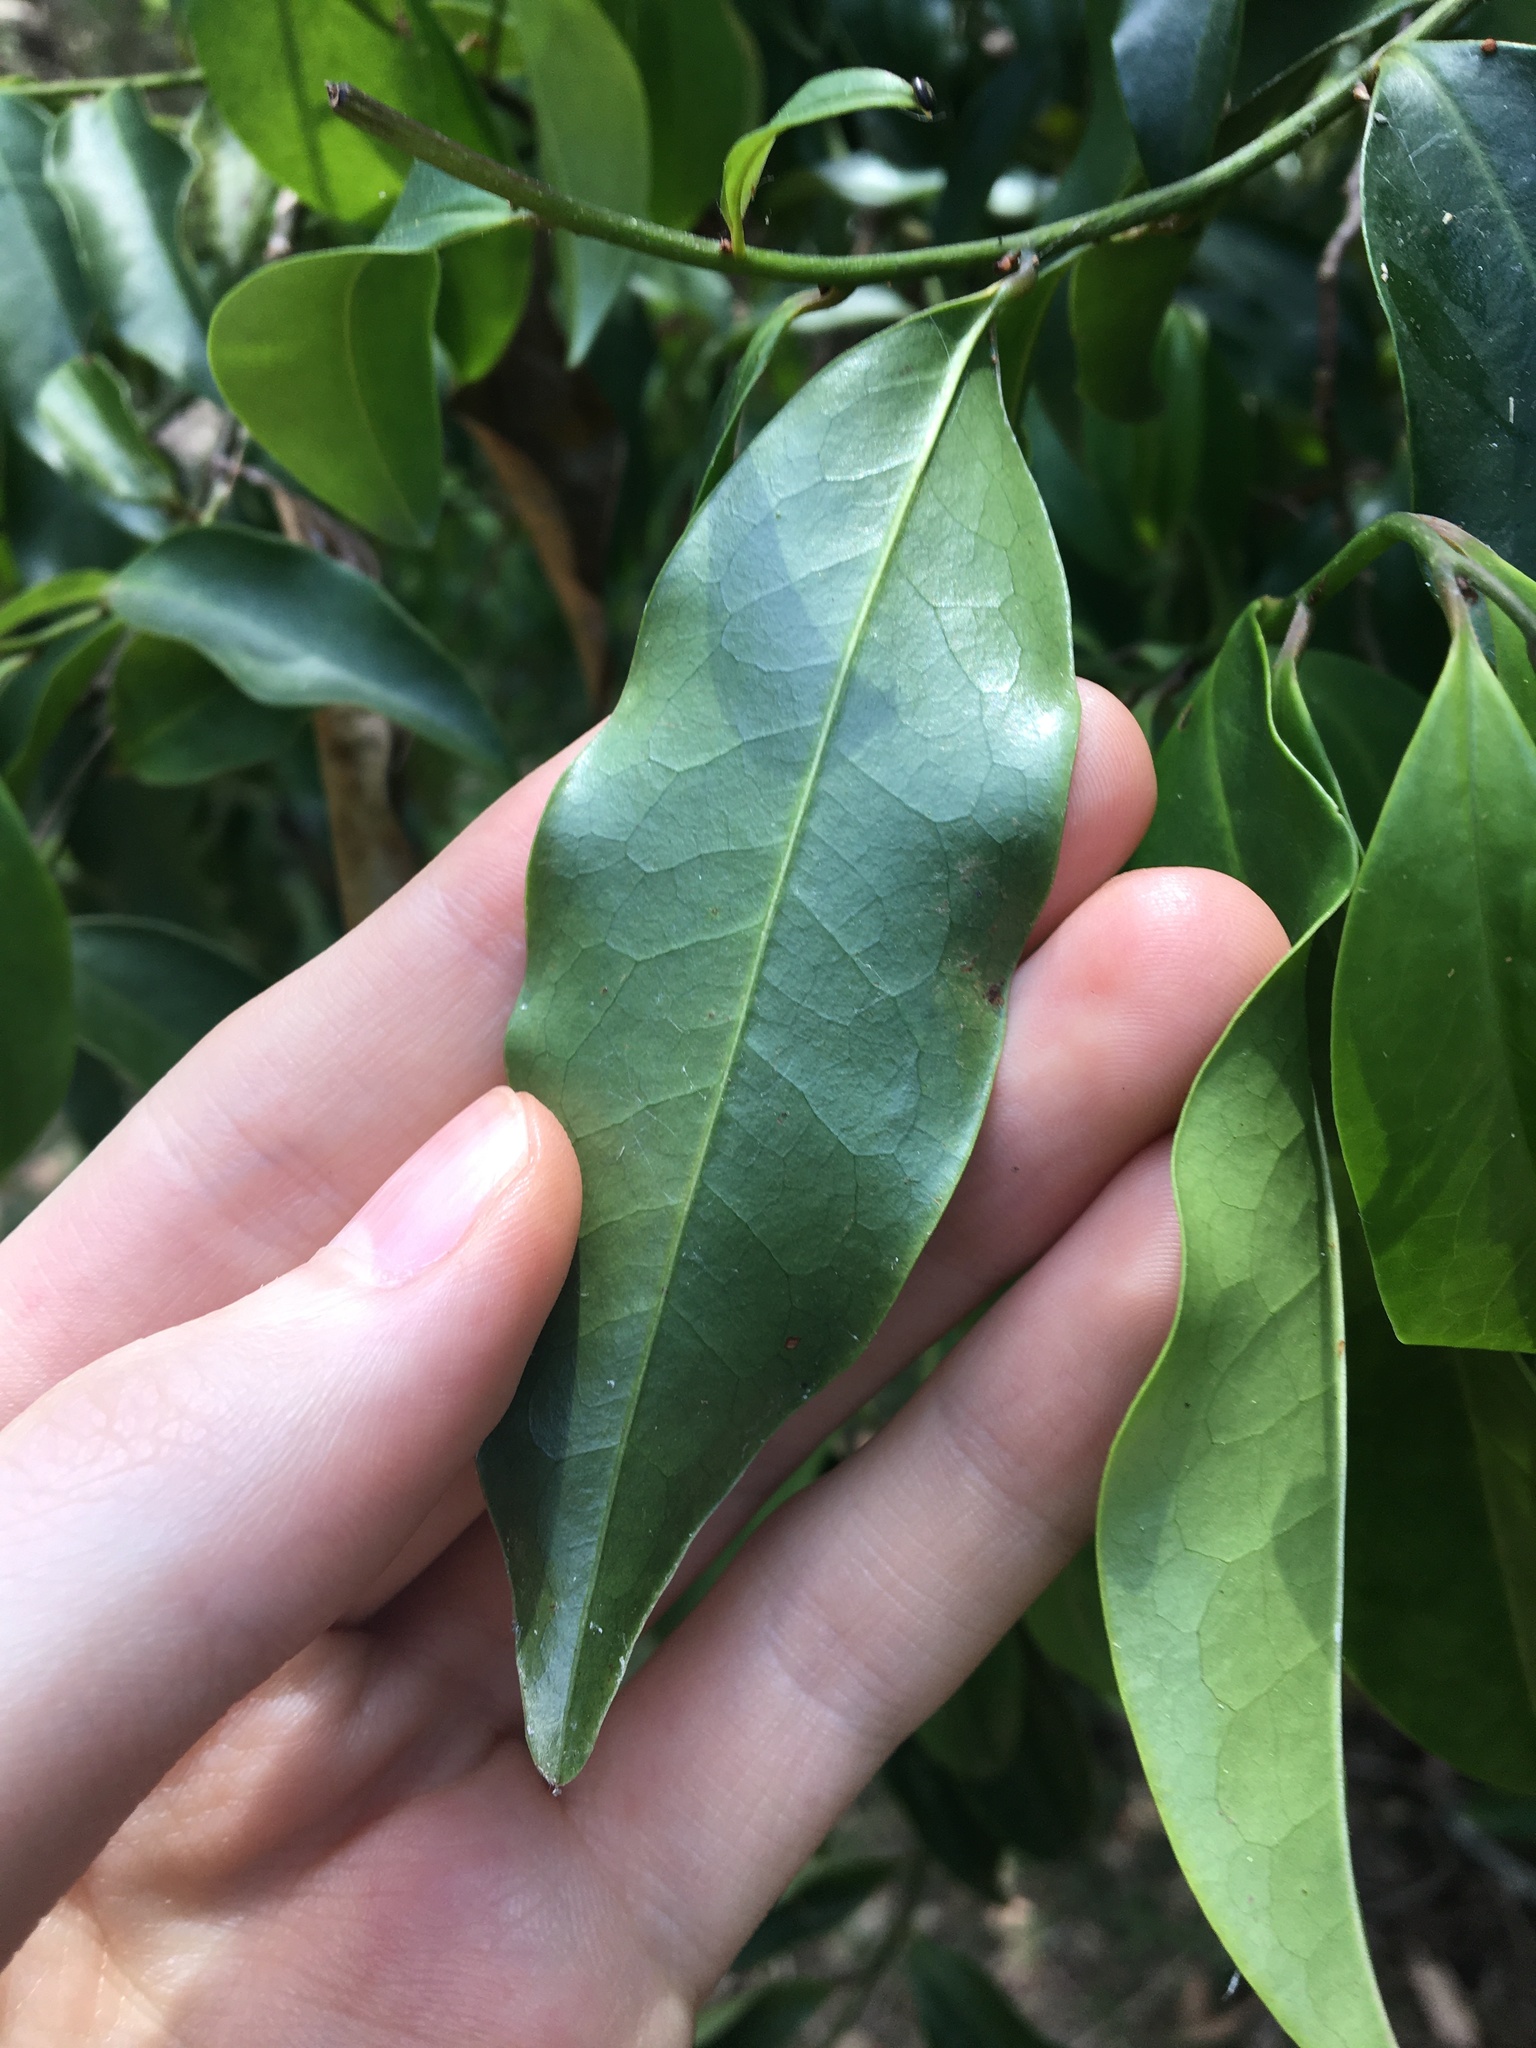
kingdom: Plantae
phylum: Tracheophyta
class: Magnoliopsida
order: Magnoliales
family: Eupomatiaceae
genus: Eupomatia
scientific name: Eupomatia laurina
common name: Bolwarra
